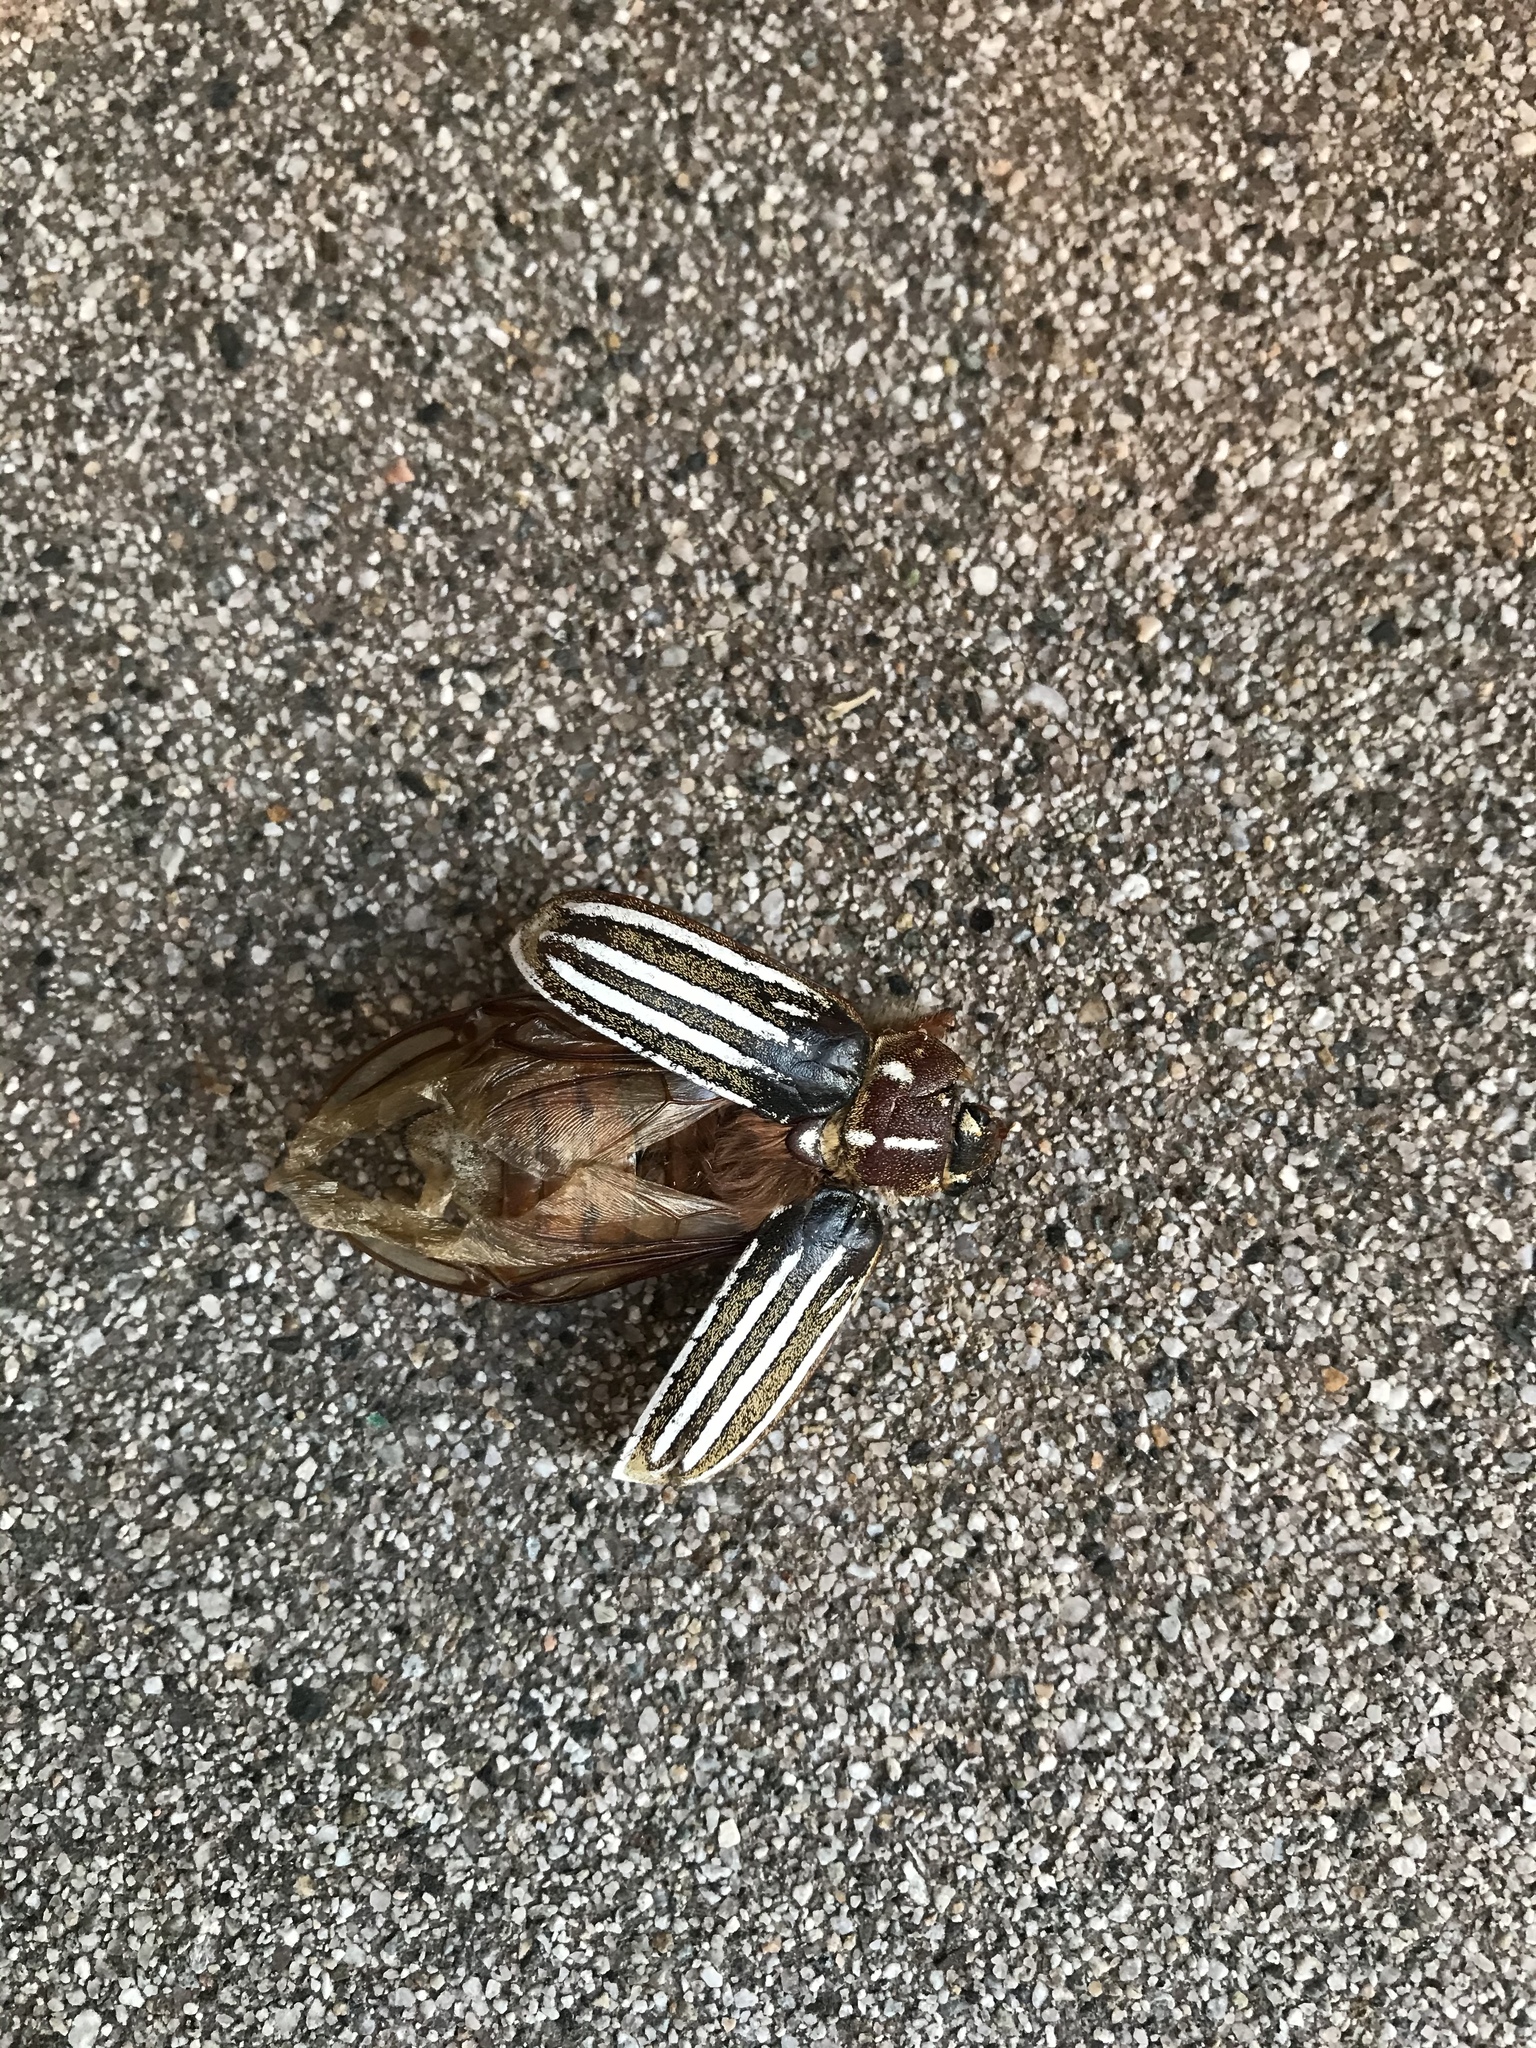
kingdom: Animalia
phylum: Arthropoda
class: Insecta
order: Coleoptera
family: Scarabaeidae
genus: Polyphylla
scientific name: Polyphylla decemlineata
